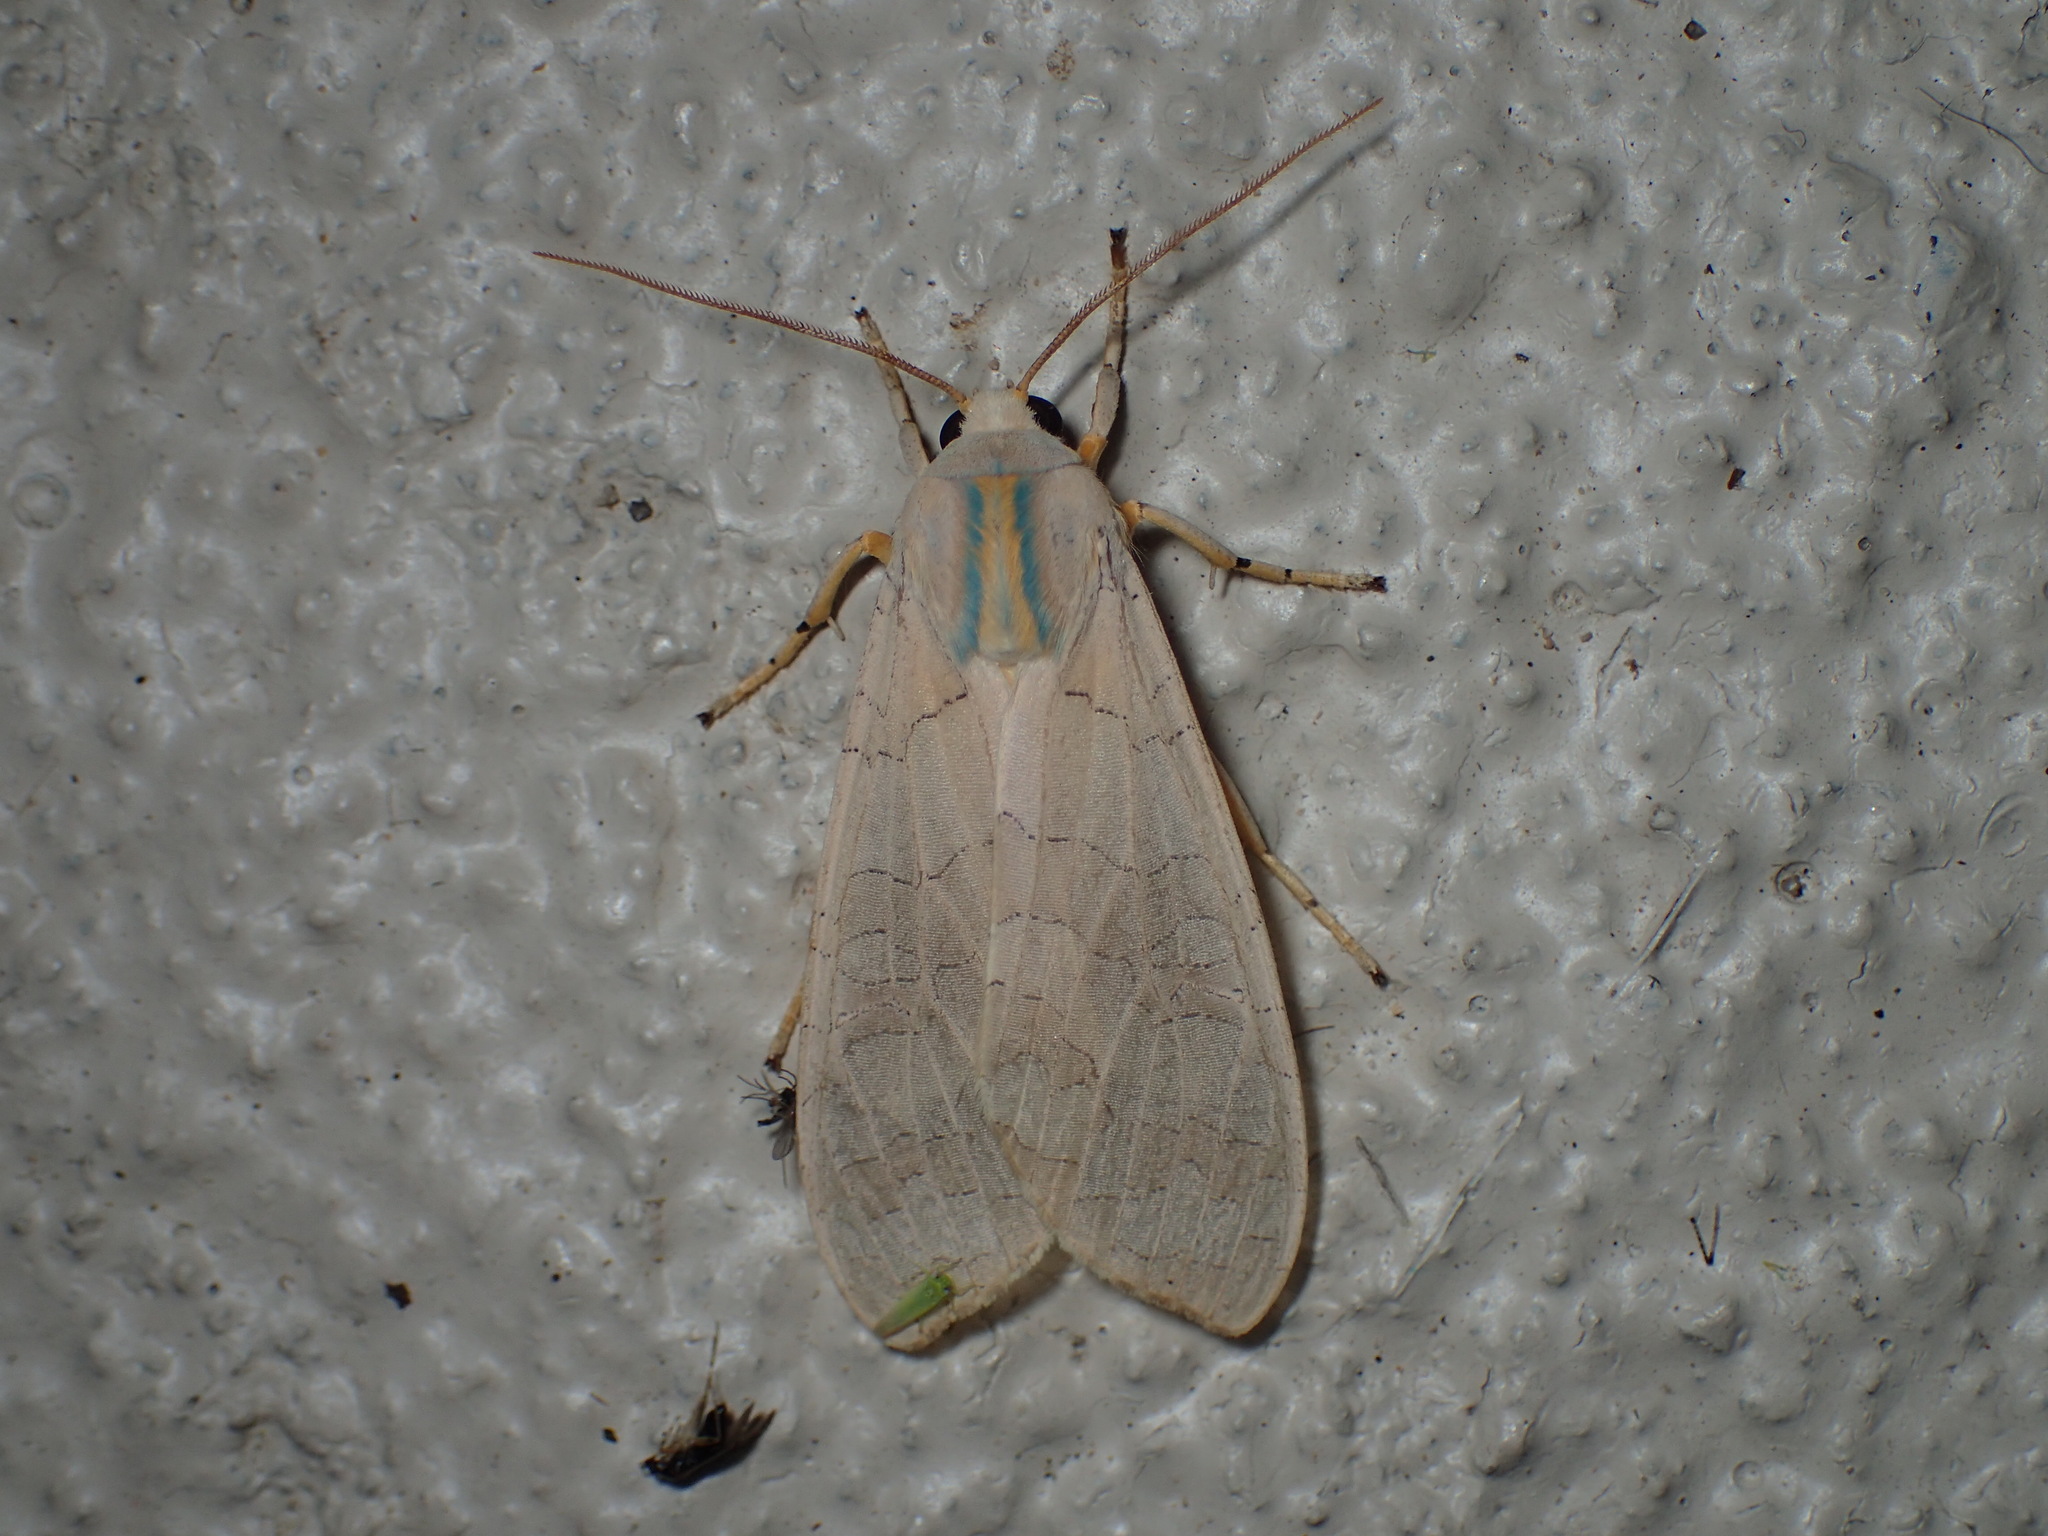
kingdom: Animalia
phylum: Arthropoda
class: Insecta
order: Lepidoptera
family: Erebidae
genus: Halysidota
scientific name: Halysidota
